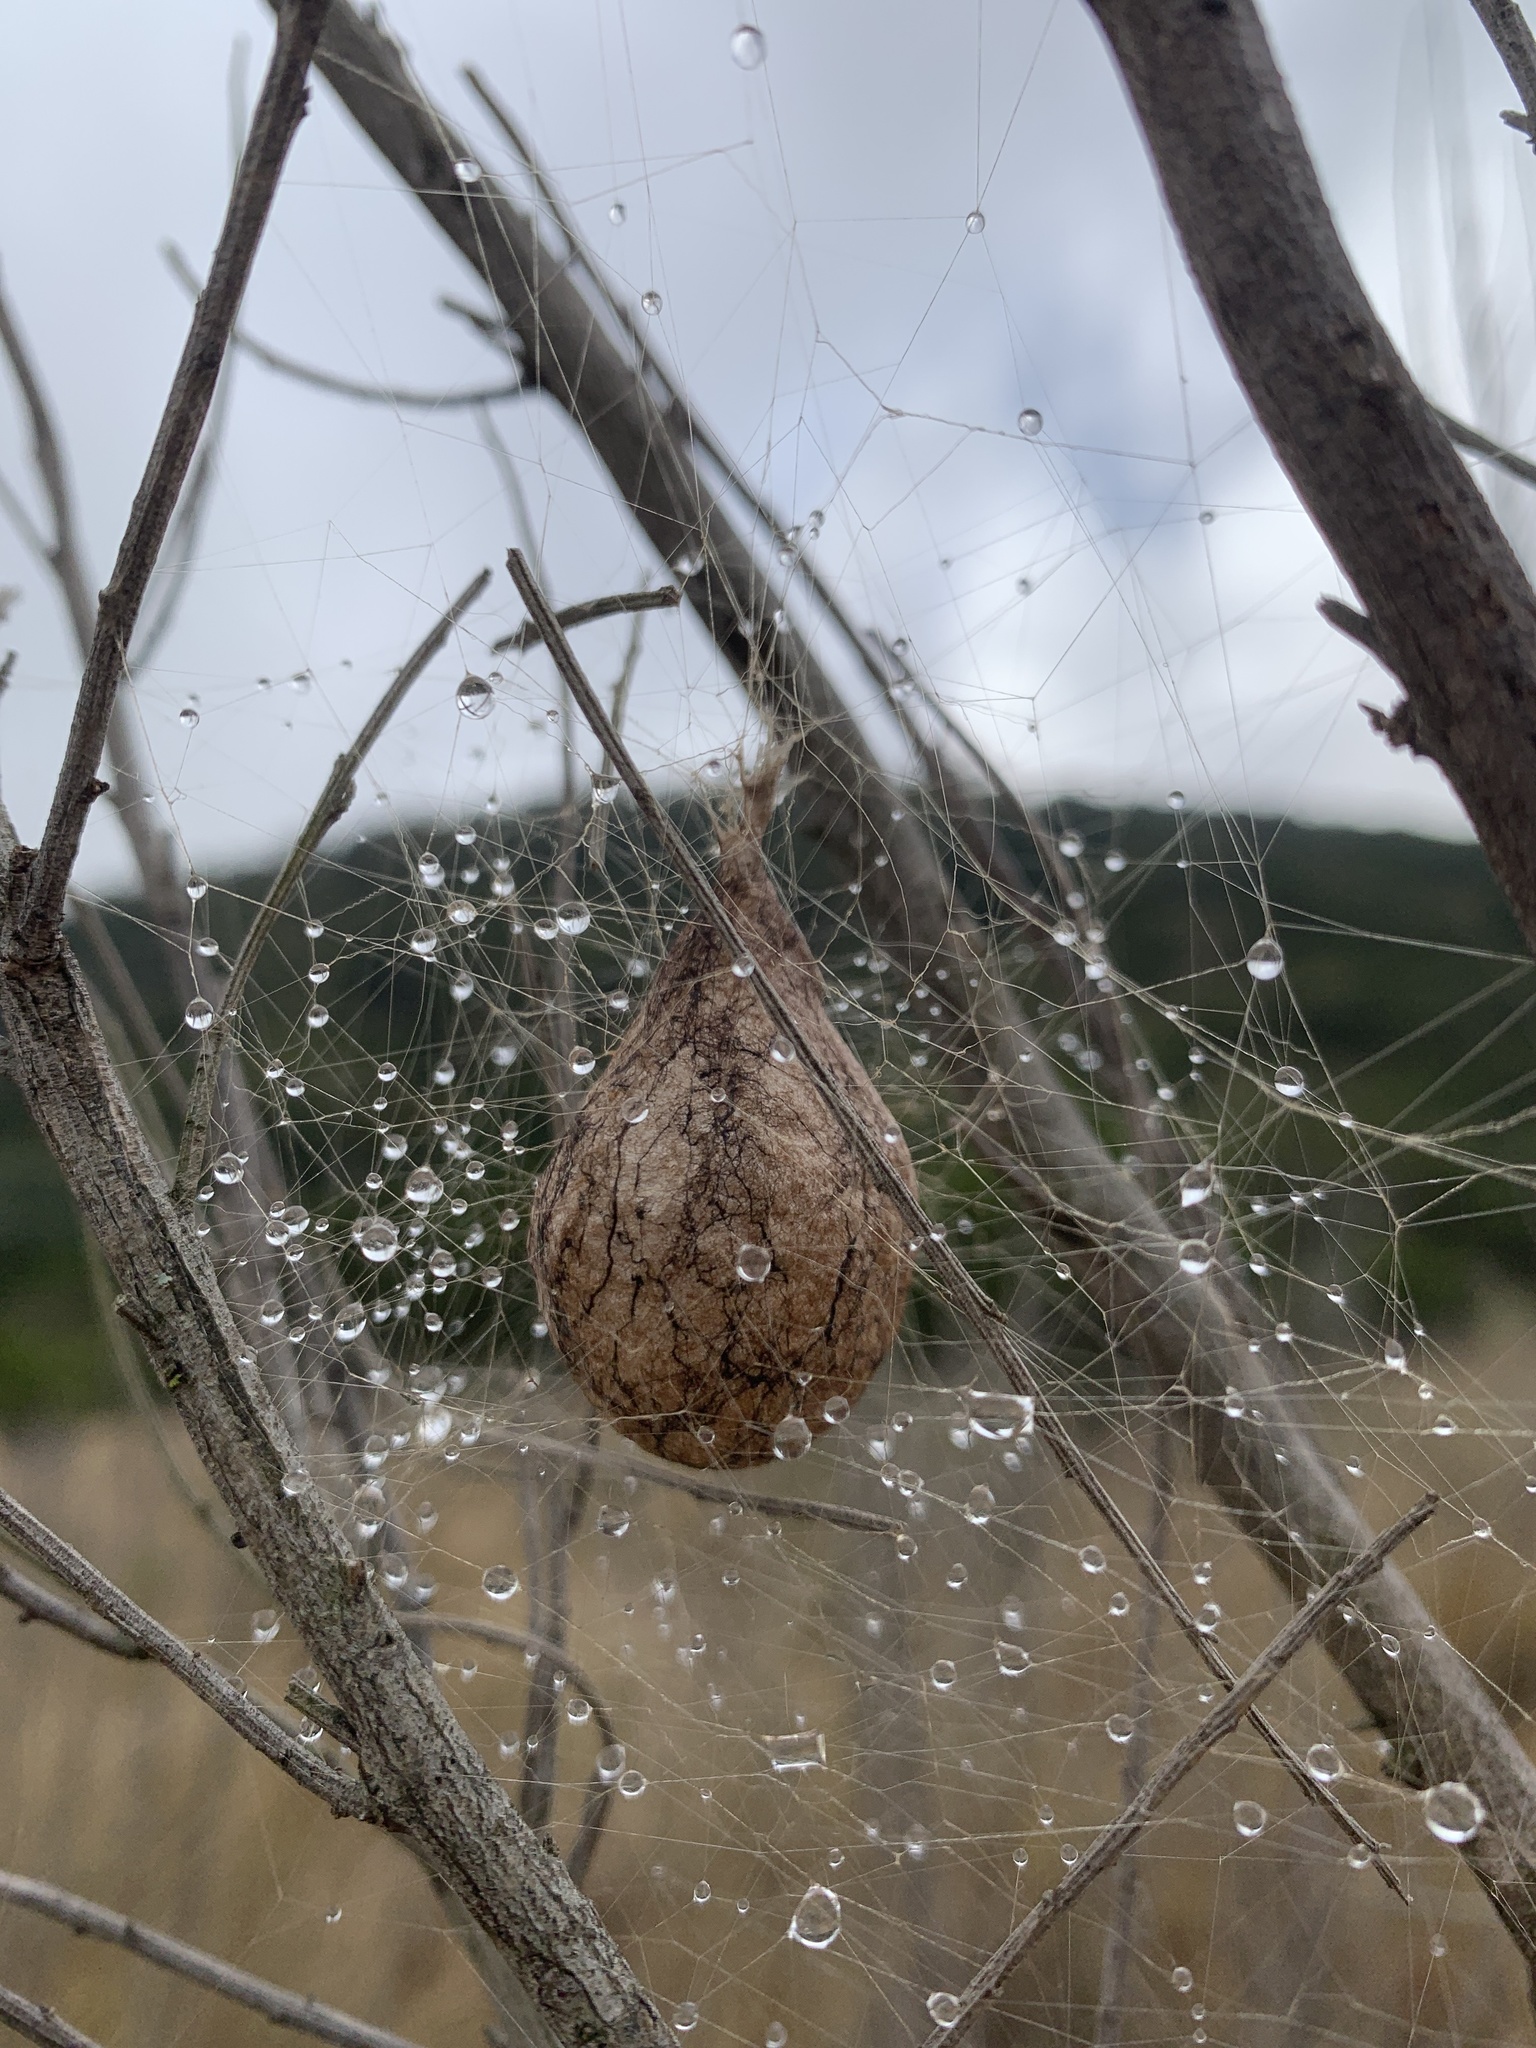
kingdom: Animalia
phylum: Arthropoda
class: Arachnida
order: Araneae
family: Araneidae
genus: Argiope
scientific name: Argiope aurantia
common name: Orb weavers
